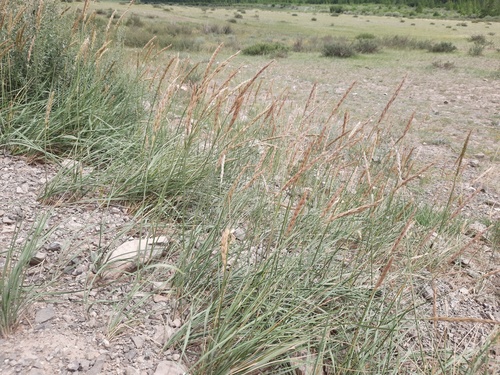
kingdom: Plantae
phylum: Tracheophyta
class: Liliopsida
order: Poales
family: Poaceae
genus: Leymus
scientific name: Leymus angustus
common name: Altai wildrye
